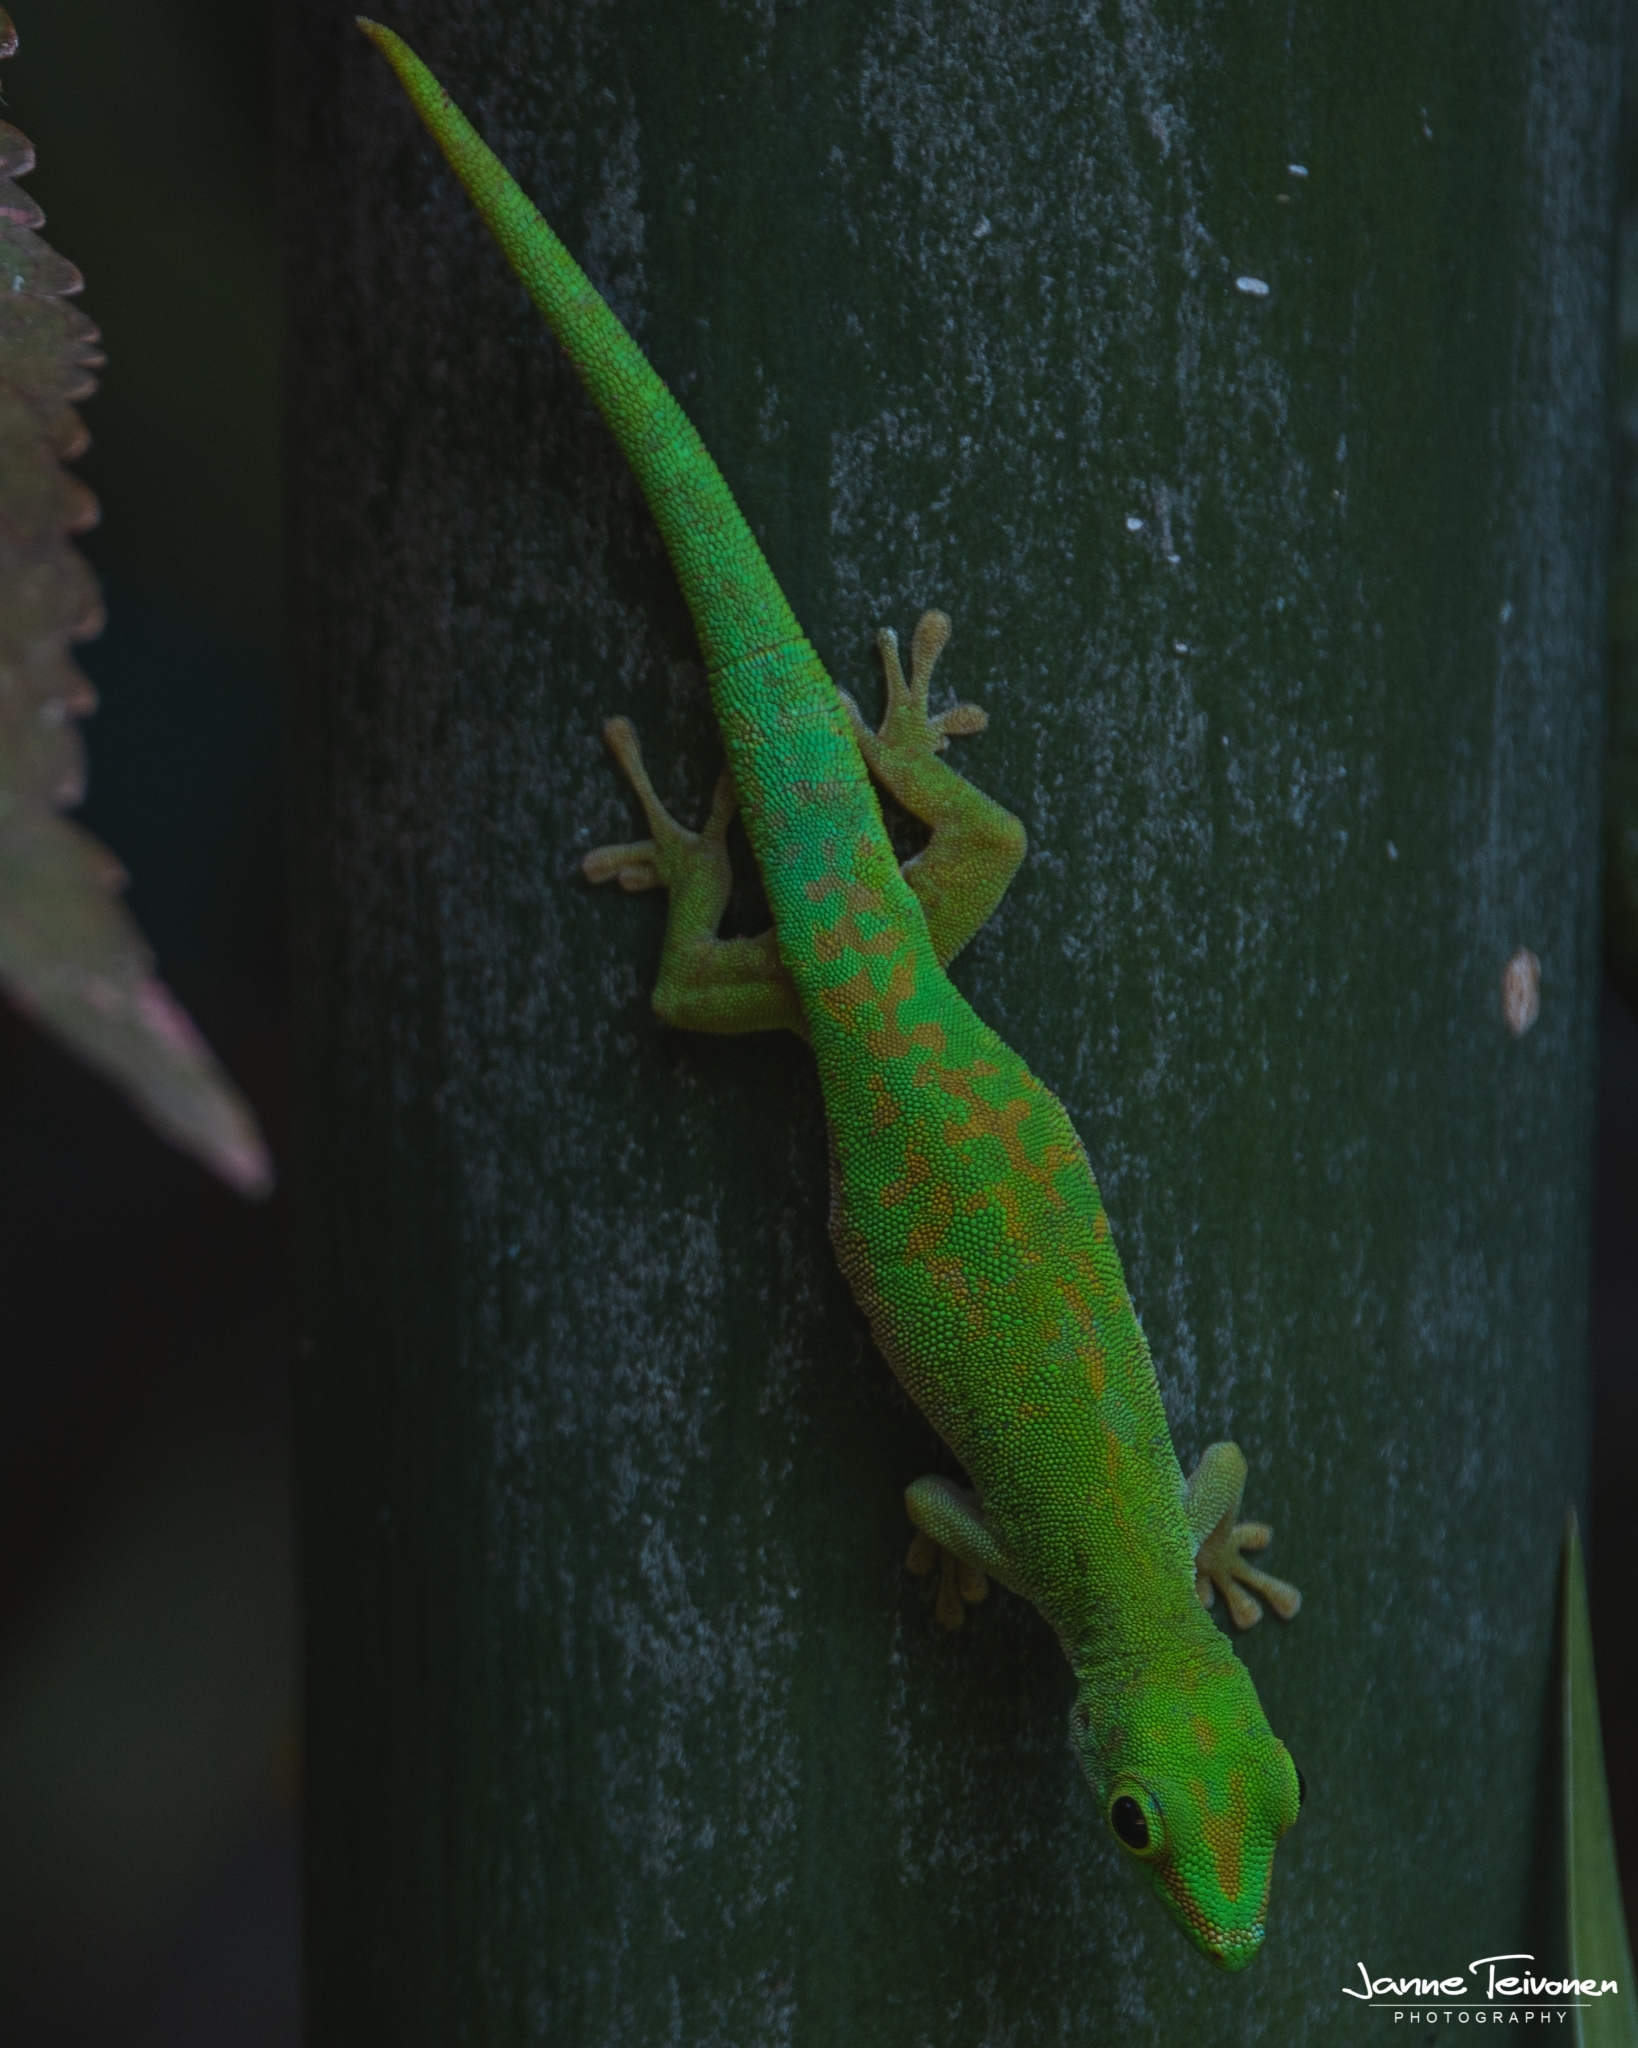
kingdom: Animalia
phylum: Chordata
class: Squamata
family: Gekkonidae
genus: Phelsuma
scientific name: Phelsuma astriata
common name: Seychelles day gecko
